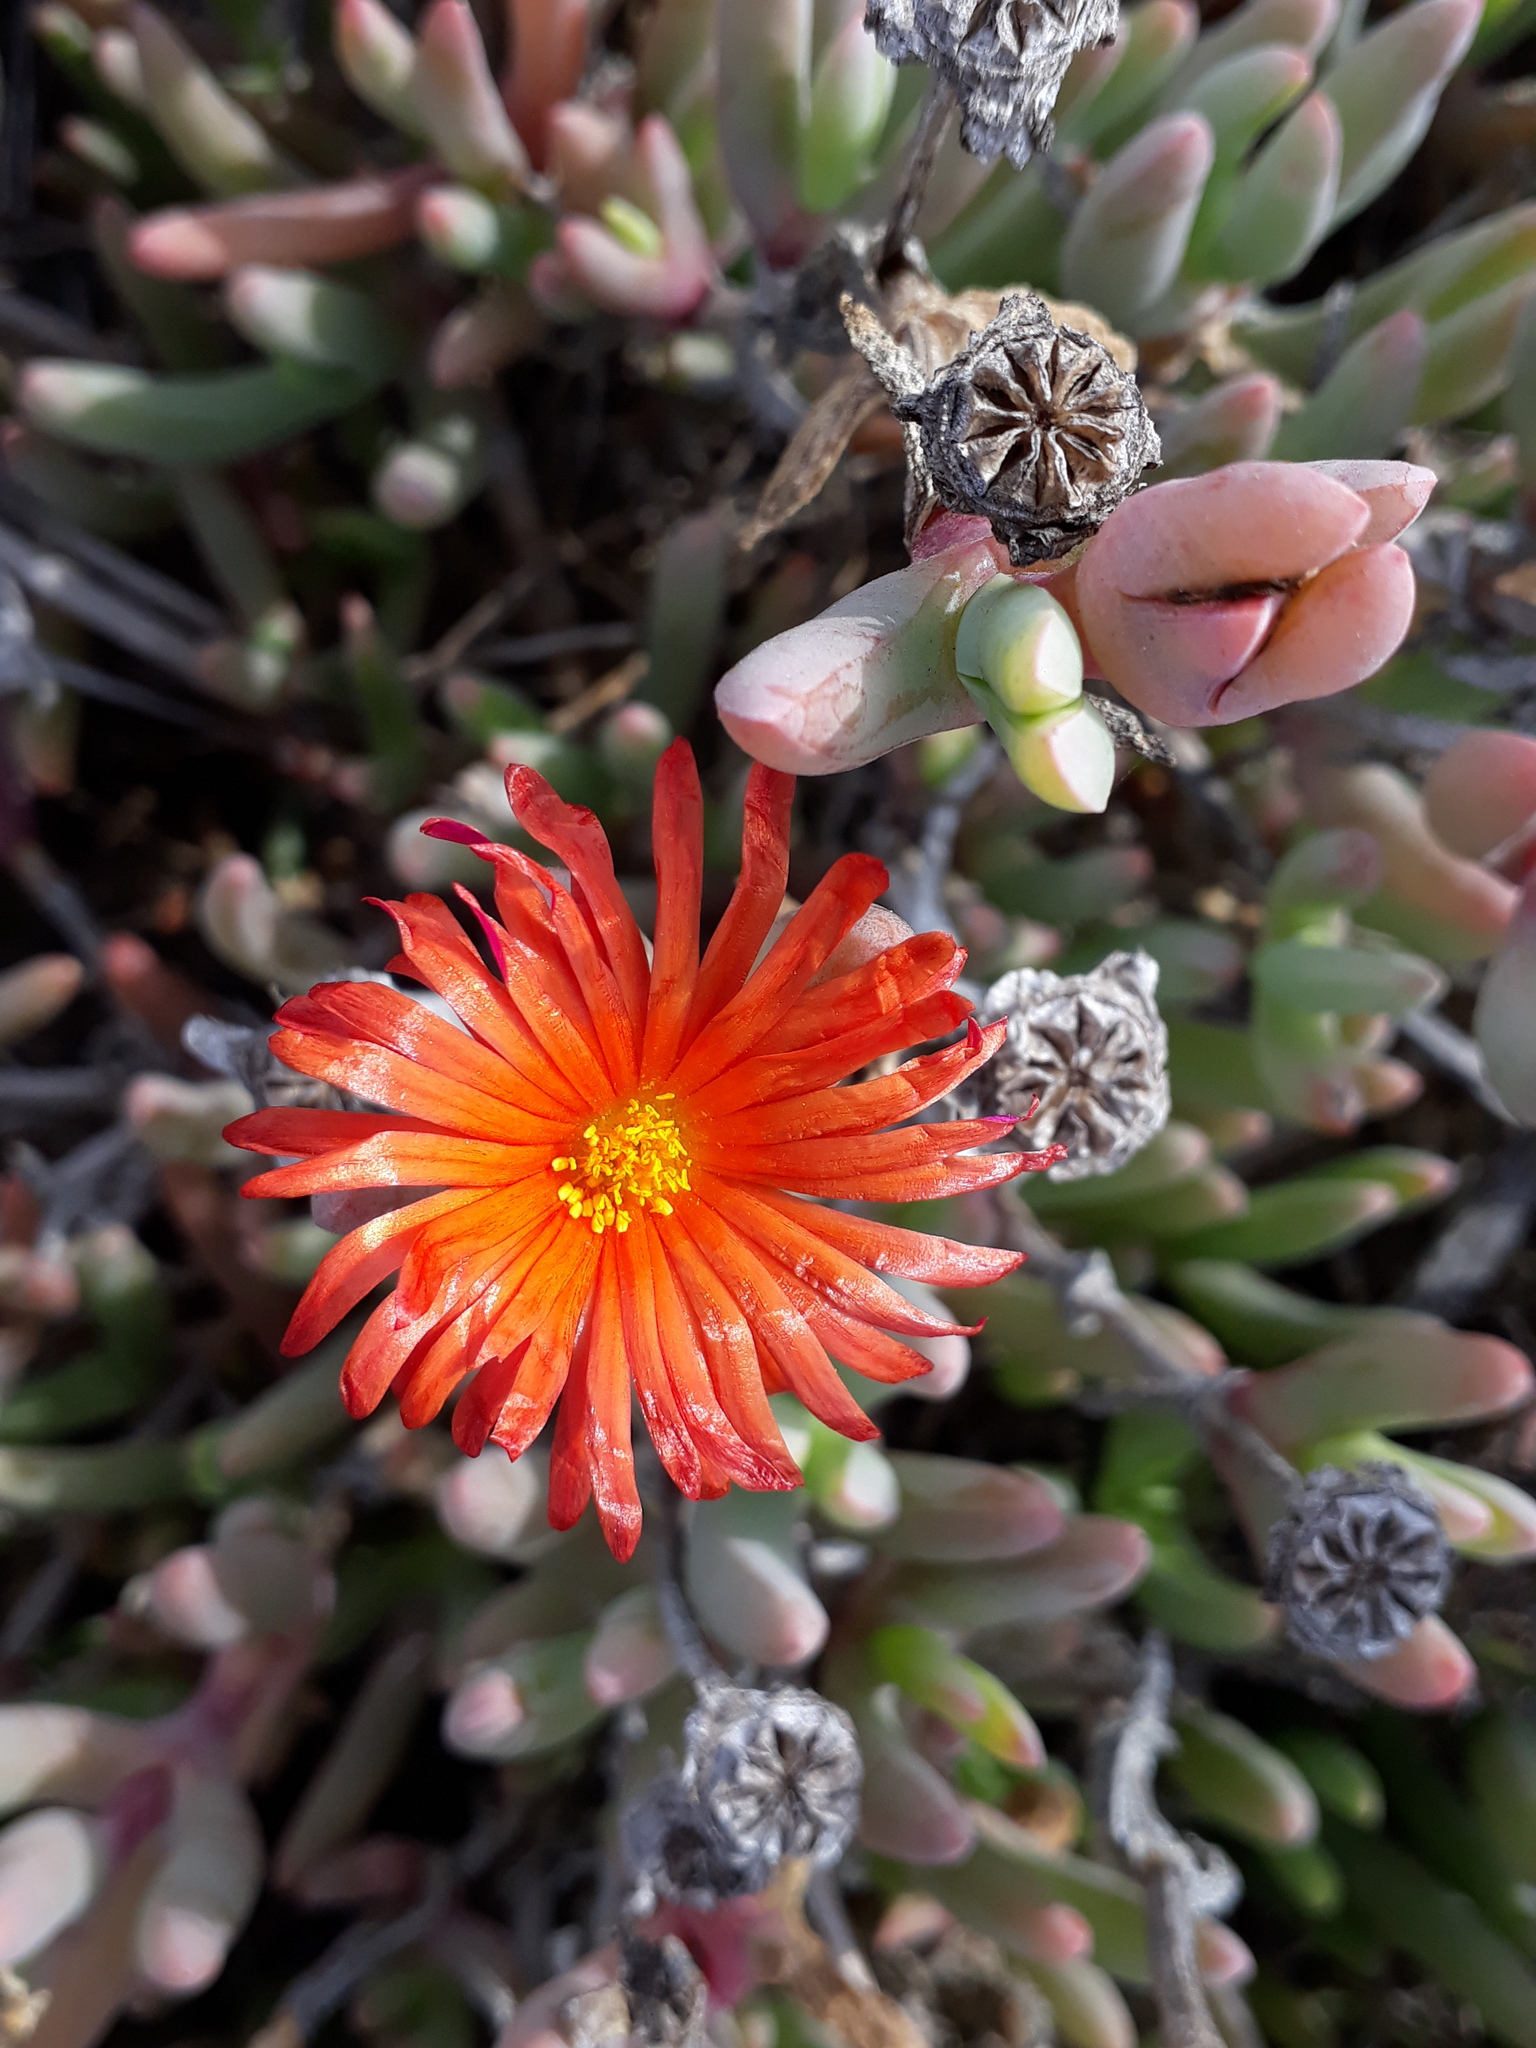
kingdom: Plantae
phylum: Tracheophyta
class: Magnoliopsida
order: Caryophyllales
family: Aizoaceae
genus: Malephora
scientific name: Malephora crocea
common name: Coppery mesemb
